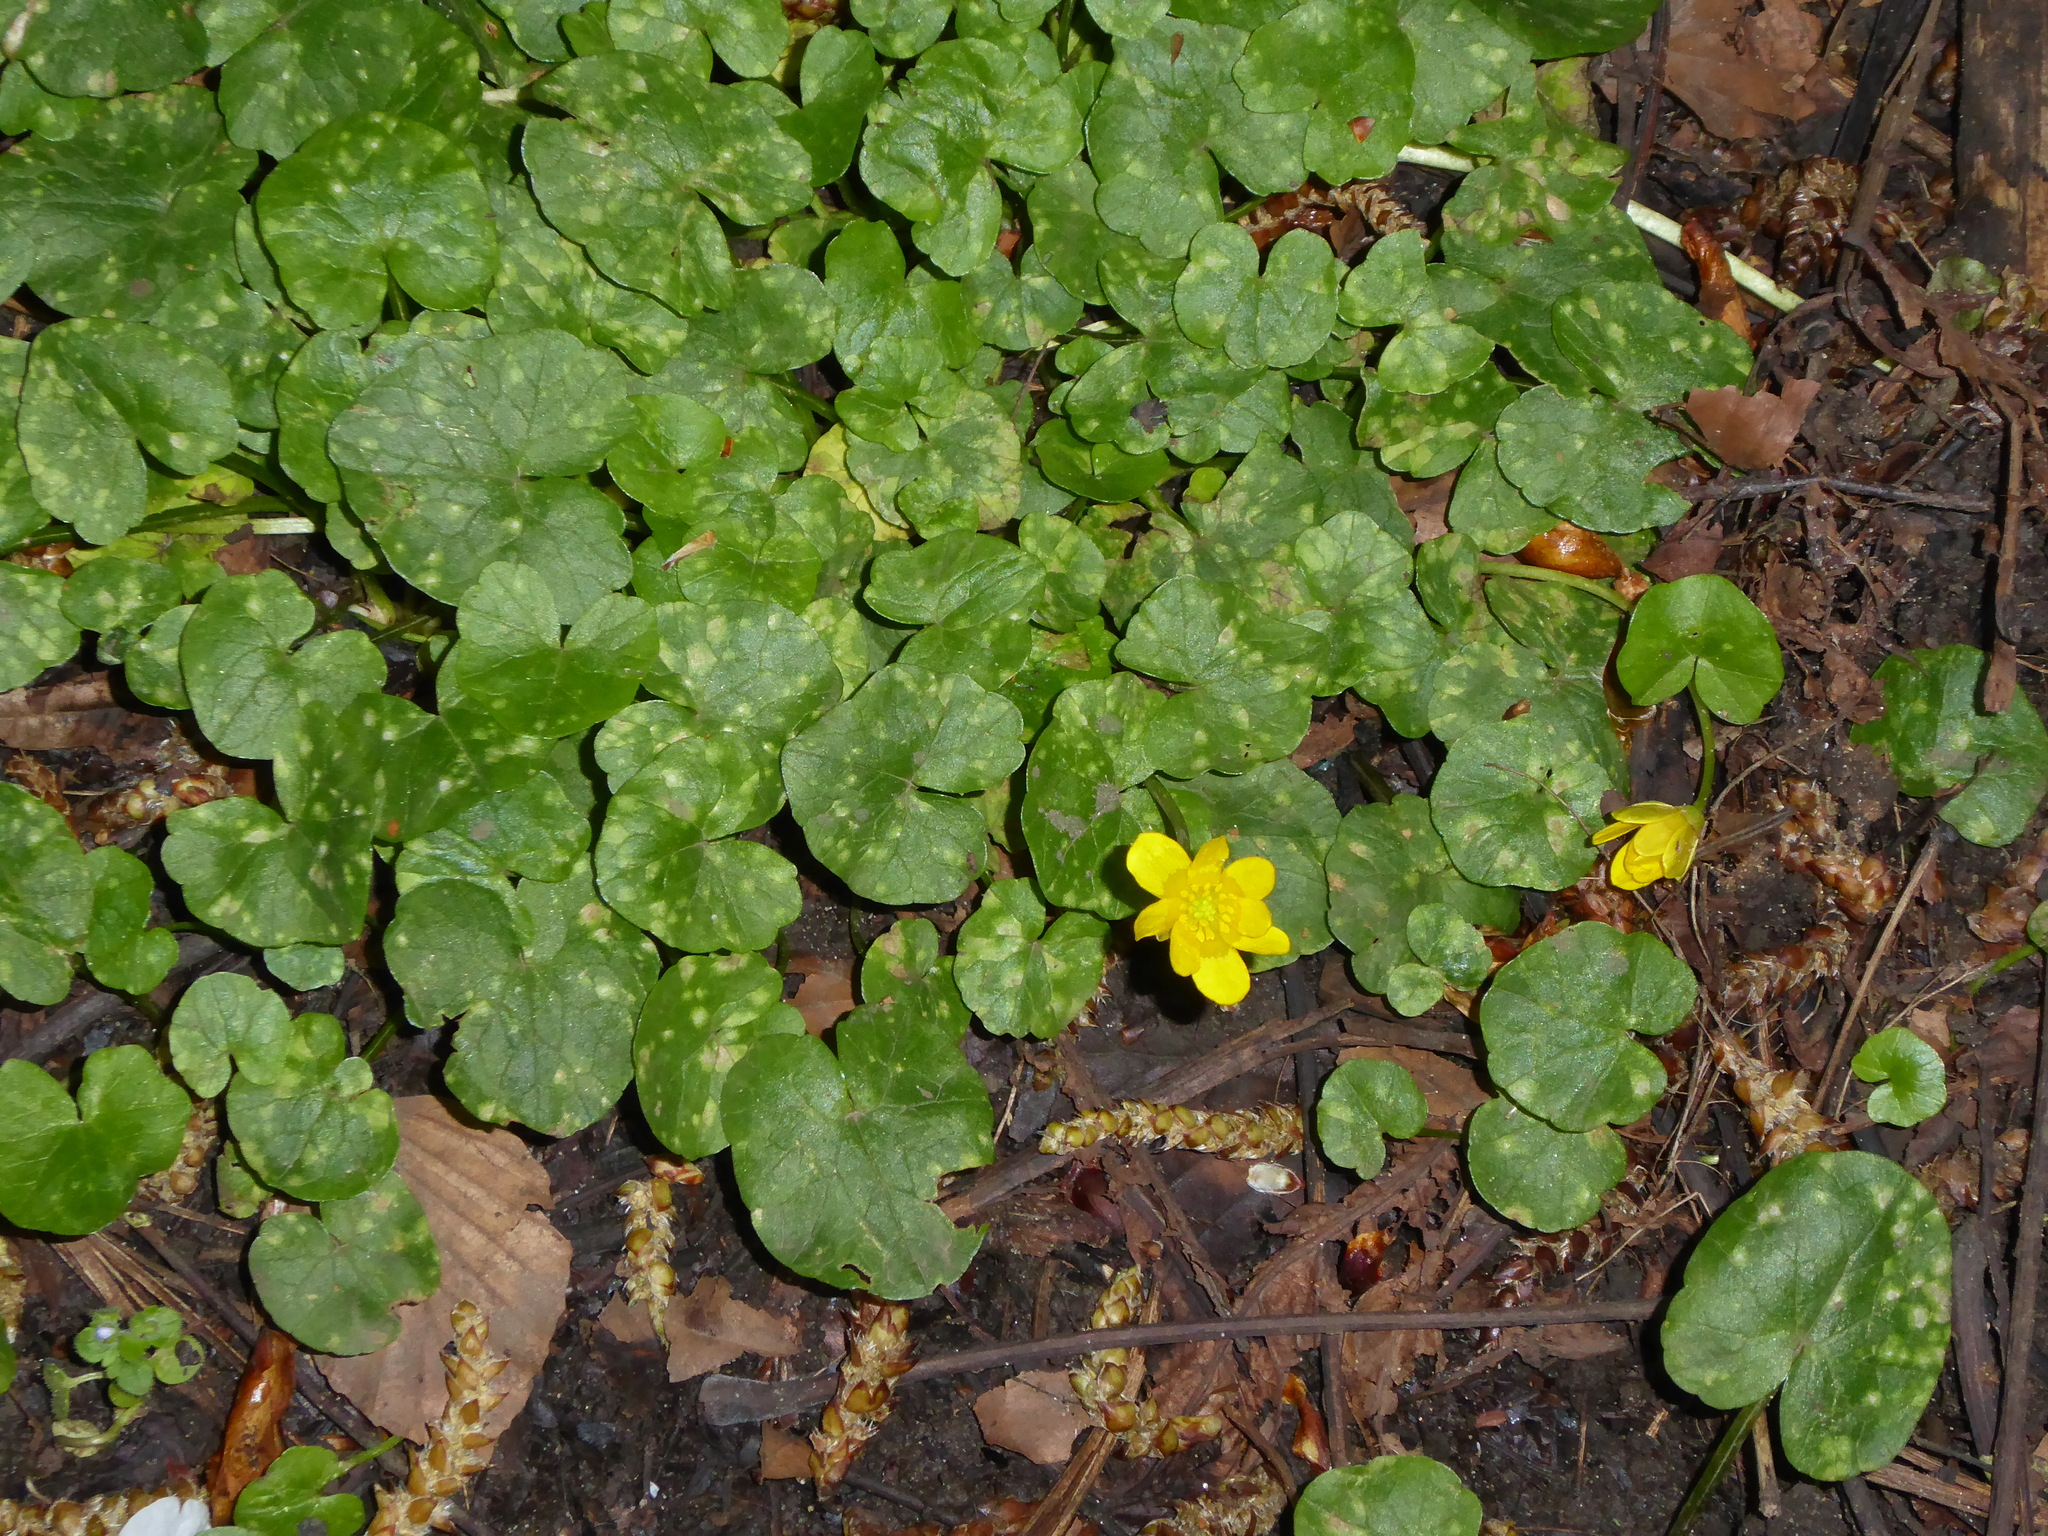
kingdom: Plantae
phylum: Tracheophyta
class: Magnoliopsida
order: Ranunculales
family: Ranunculaceae
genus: Ficaria
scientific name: Ficaria verna
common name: Lesser celandine
